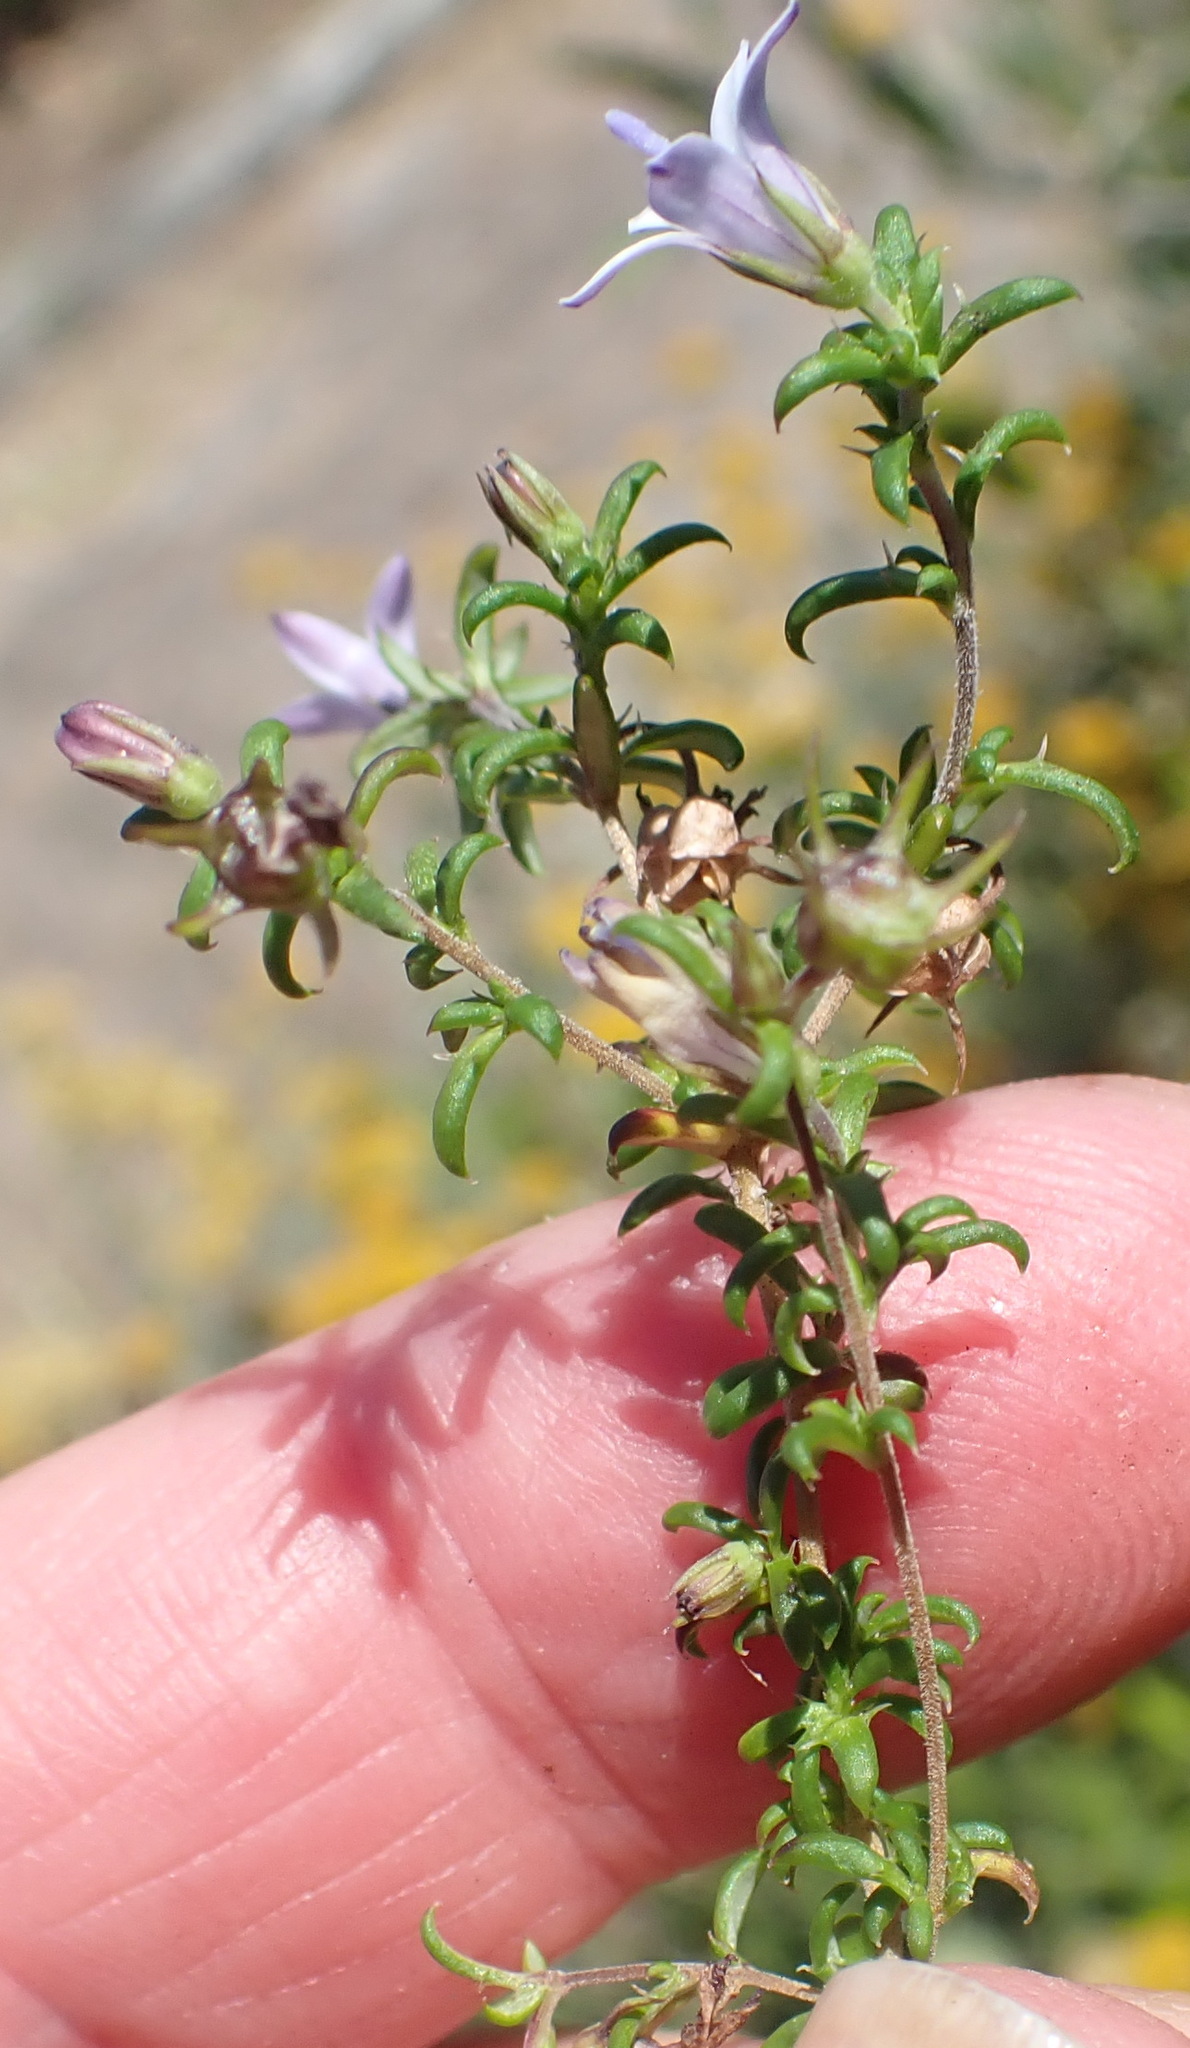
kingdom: Plantae
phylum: Tracheophyta
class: Magnoliopsida
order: Asterales
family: Campanulaceae
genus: Wahlenbergia
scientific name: Wahlenbergia thunbergii
